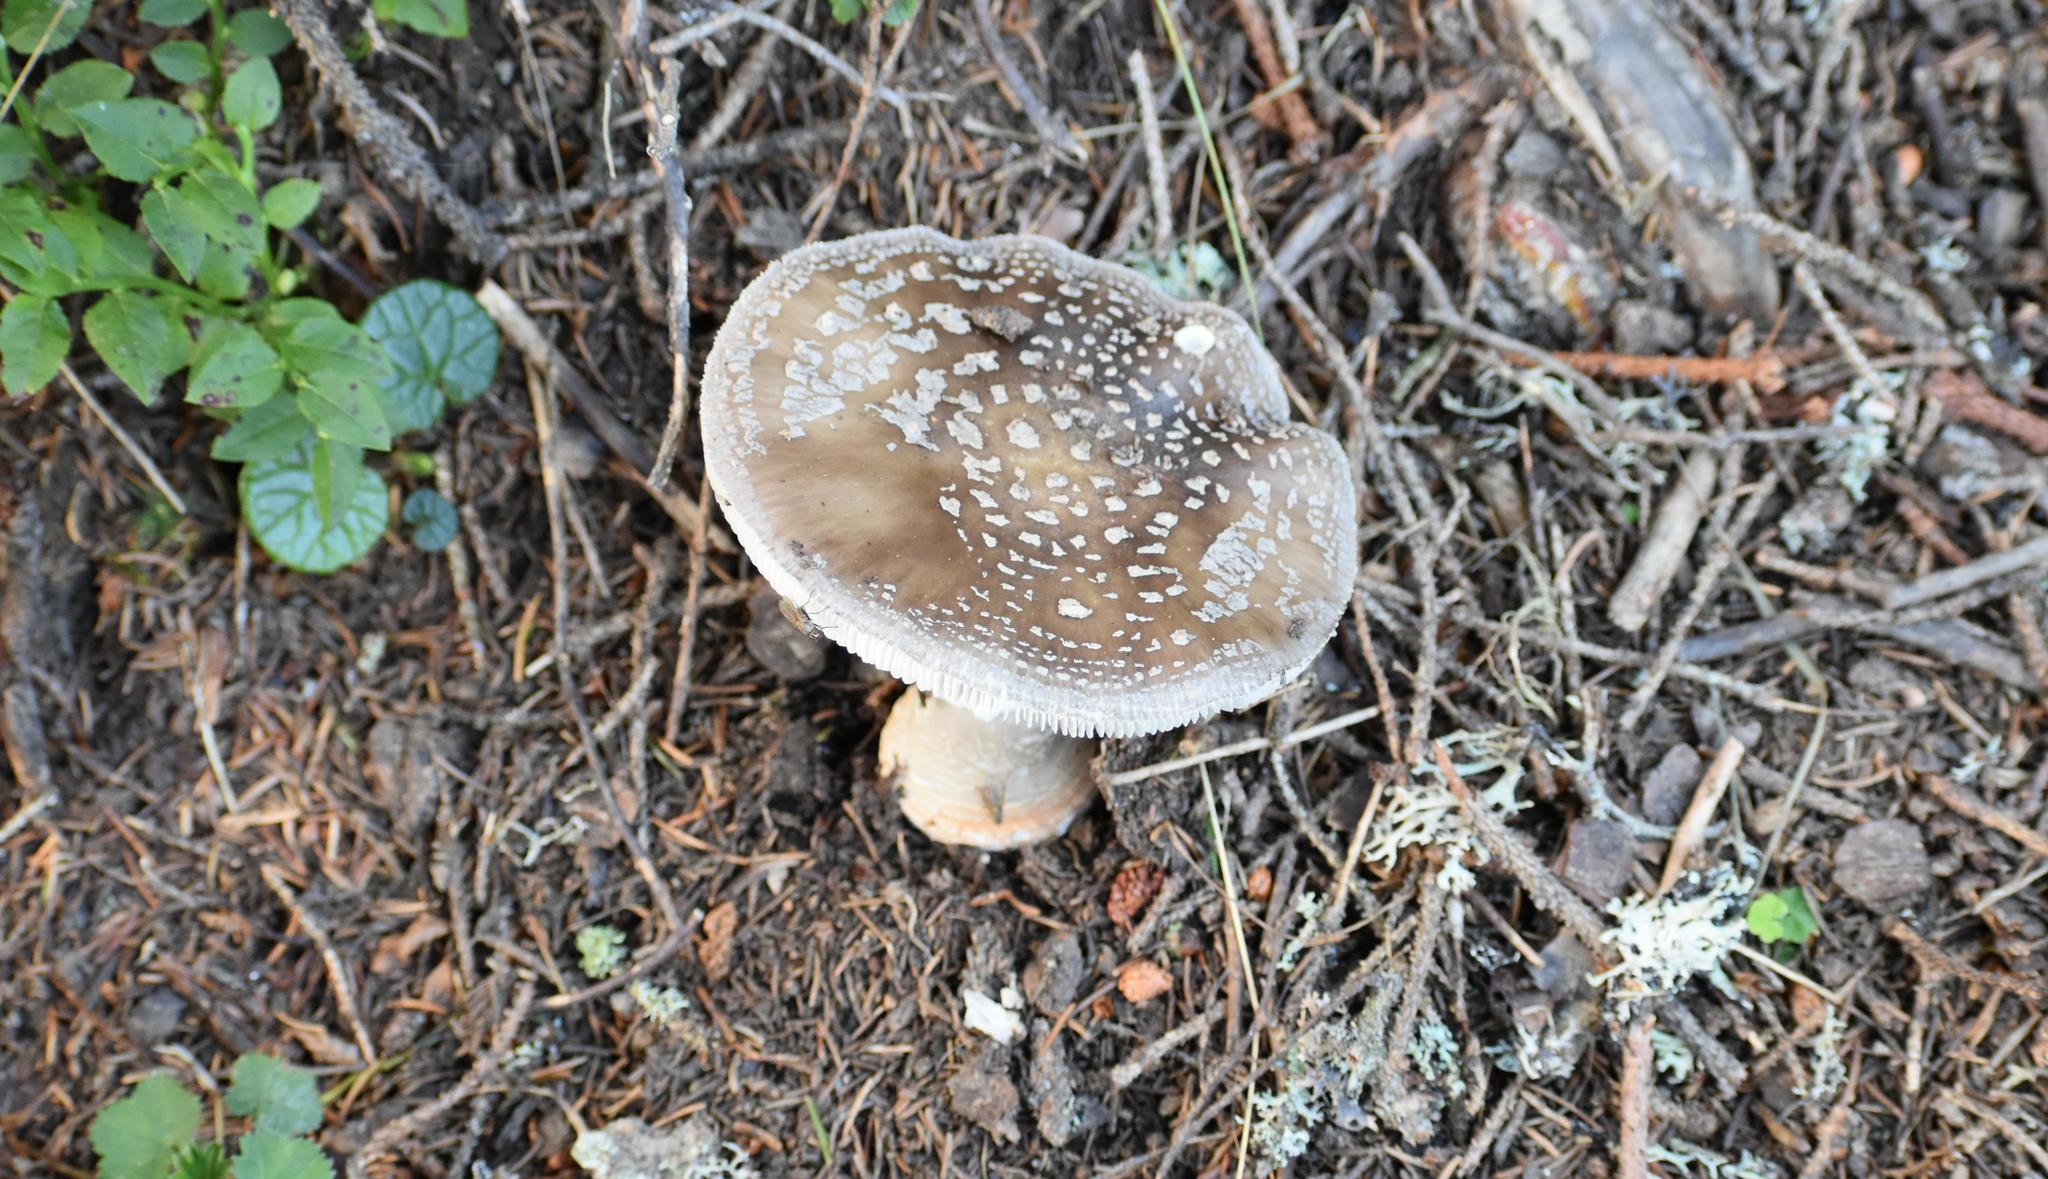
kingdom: Fungi
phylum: Basidiomycota
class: Agaricomycetes
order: Agaricales
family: Amanitaceae
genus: Amanita
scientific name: Amanita pantherina
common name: Panthercap
